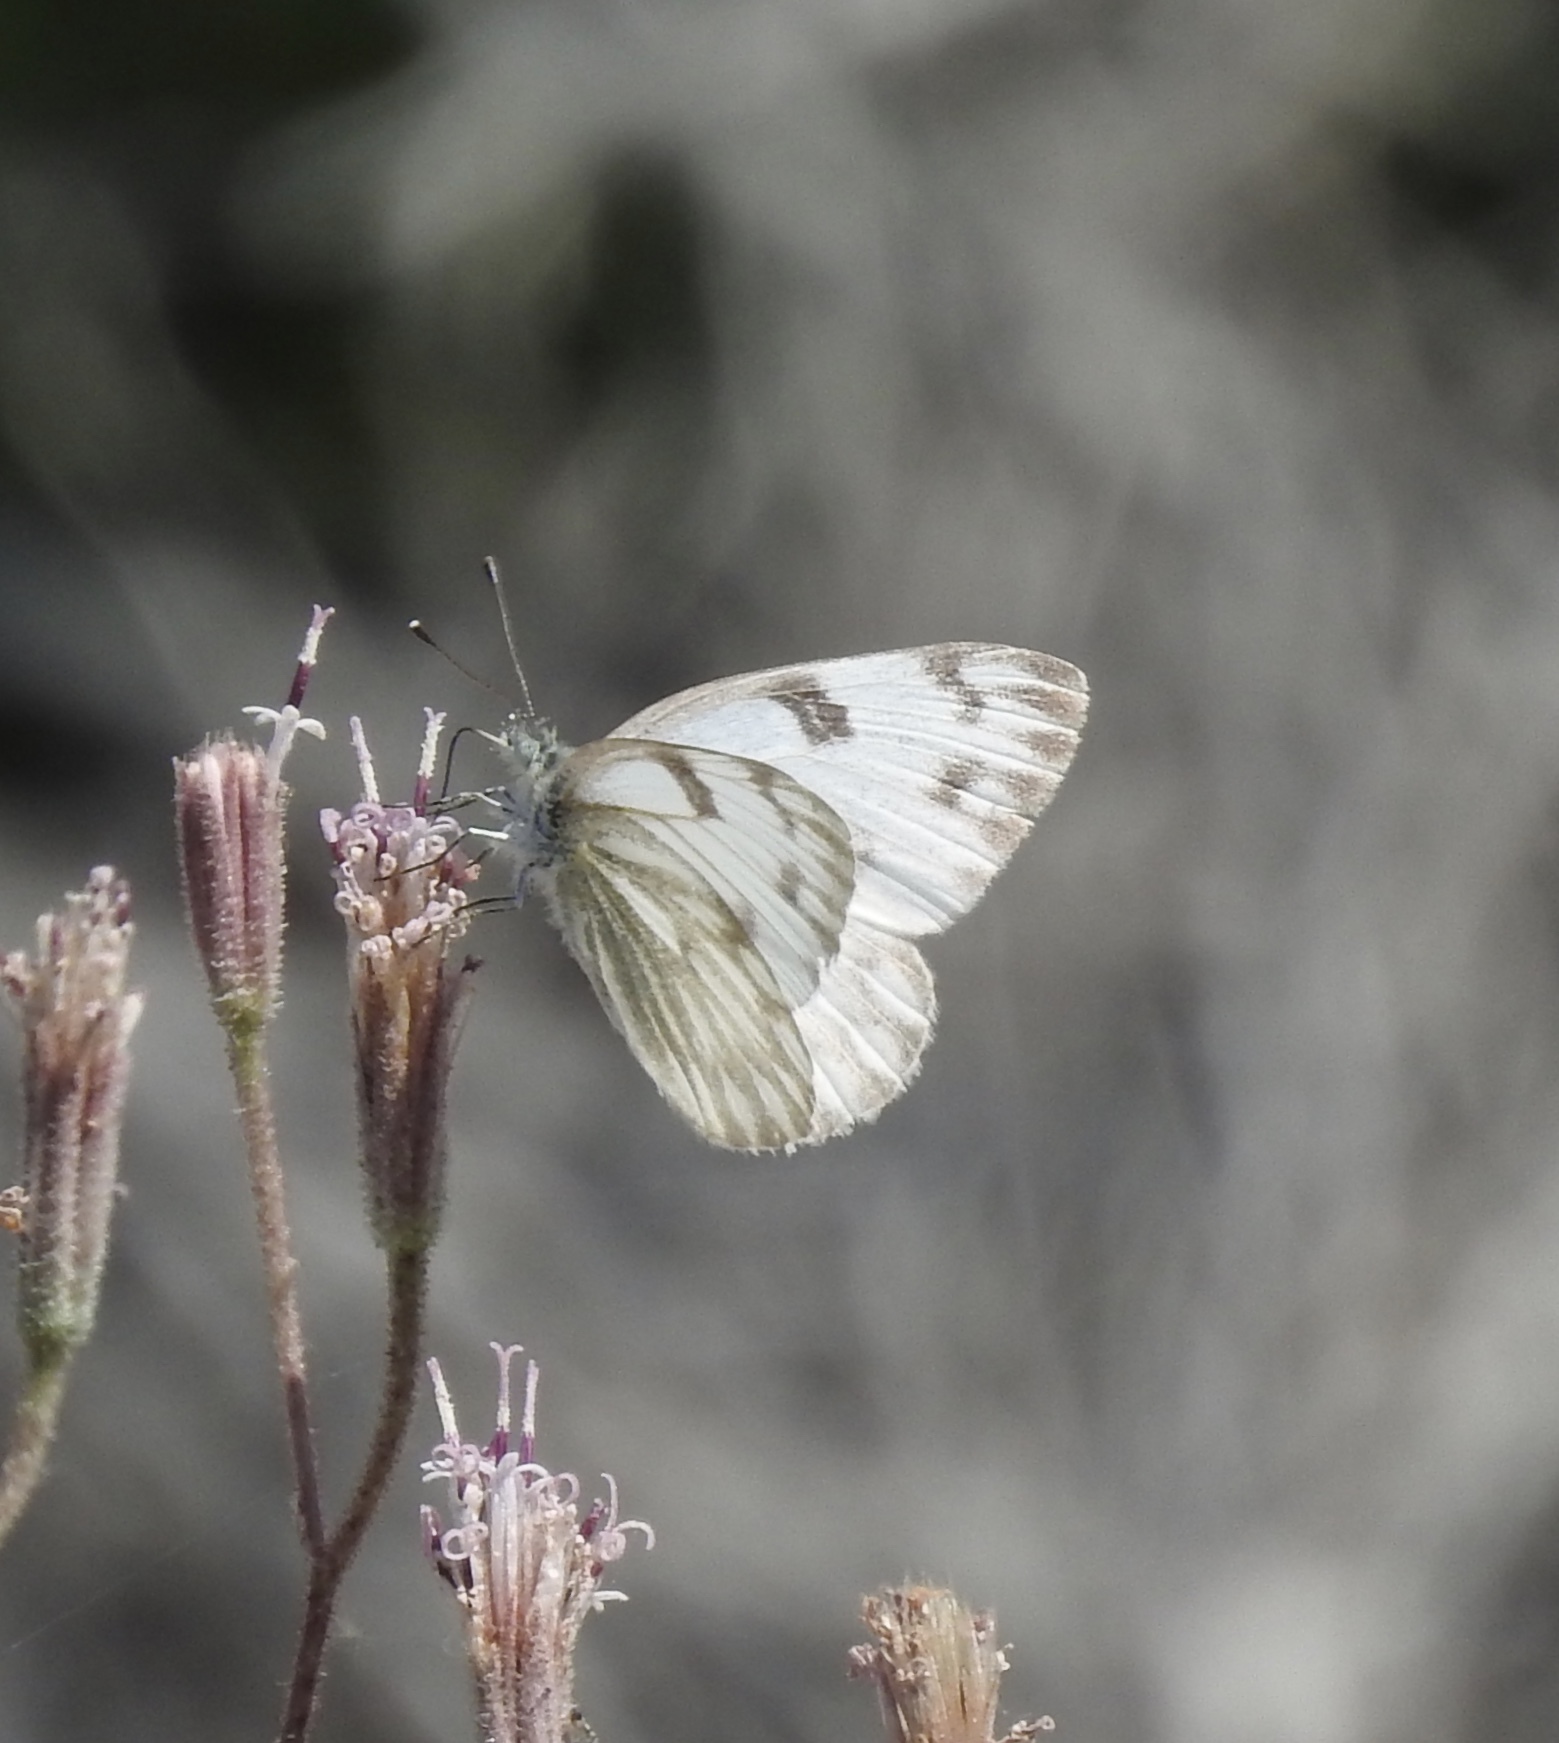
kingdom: Animalia
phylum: Arthropoda
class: Insecta
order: Lepidoptera
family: Pieridae
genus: Pontia
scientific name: Pontia protodice
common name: Checkered white
